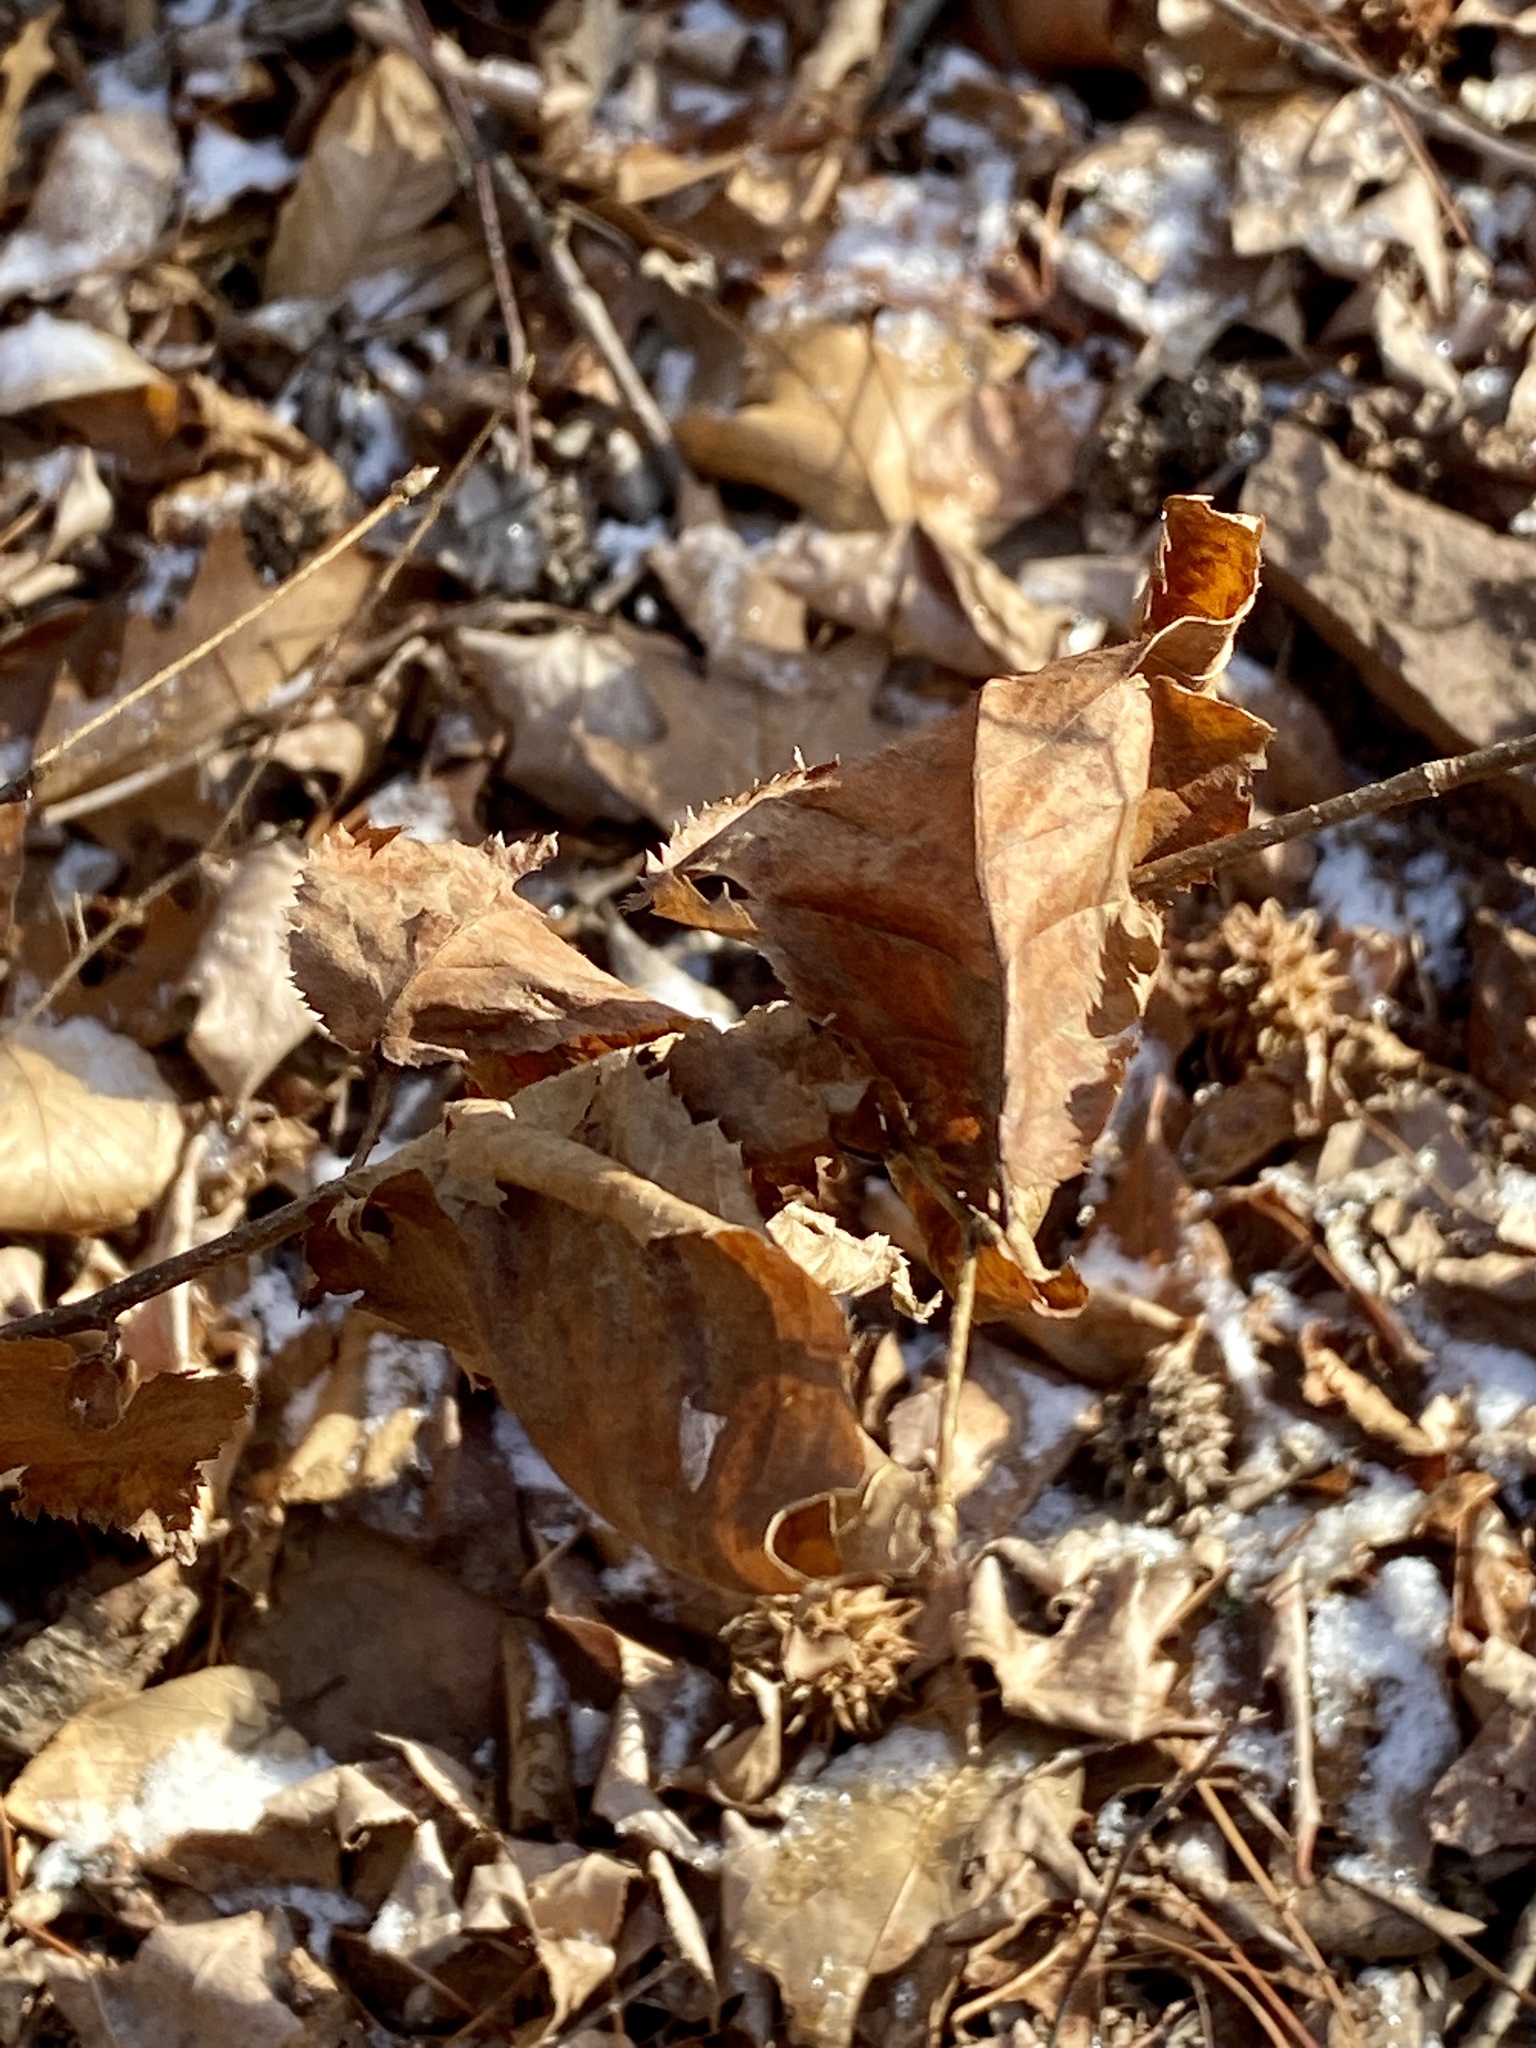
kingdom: Plantae
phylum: Tracheophyta
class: Magnoliopsida
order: Fagales
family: Betulaceae
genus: Ostrya
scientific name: Ostrya virginiana
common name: Ironwood
